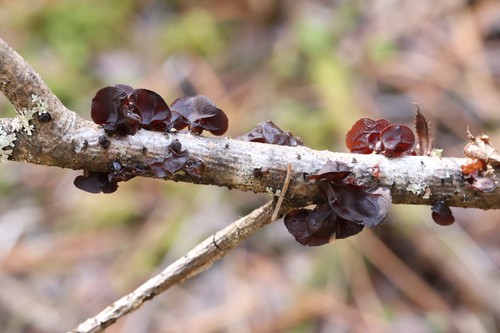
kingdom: Fungi
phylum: Basidiomycota
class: Agaricomycetes
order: Auriculariales
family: Auriculariaceae
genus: Exidia
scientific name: Exidia recisa
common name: Amber jelly
